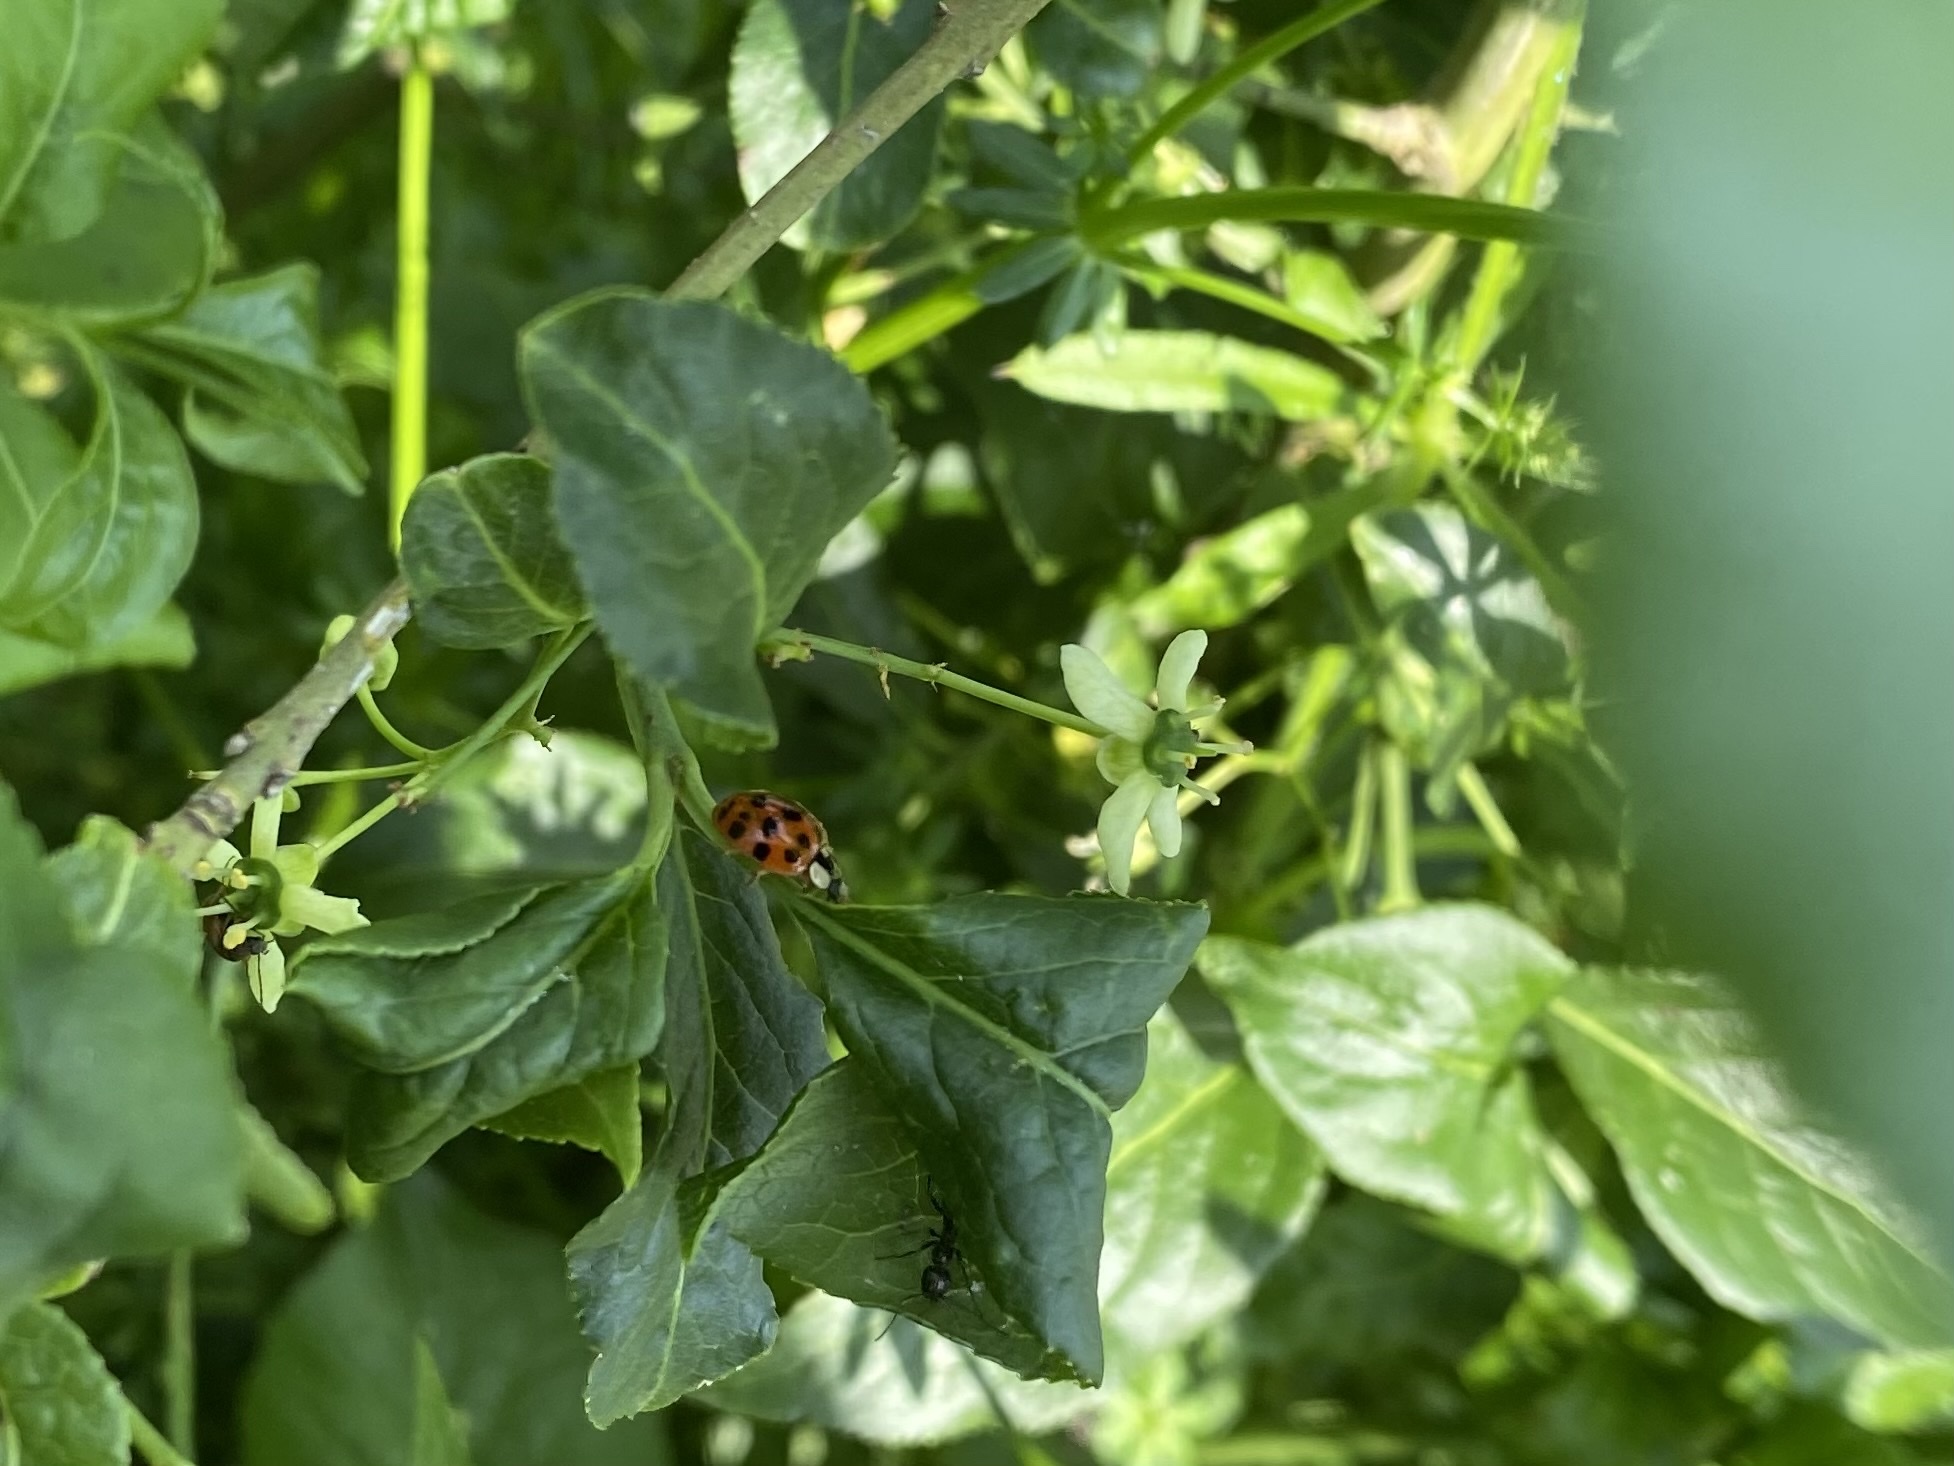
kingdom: Animalia
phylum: Arthropoda
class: Insecta
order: Coleoptera
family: Coccinellidae
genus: Harmonia
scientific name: Harmonia axyridis
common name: Harlequin ladybird
